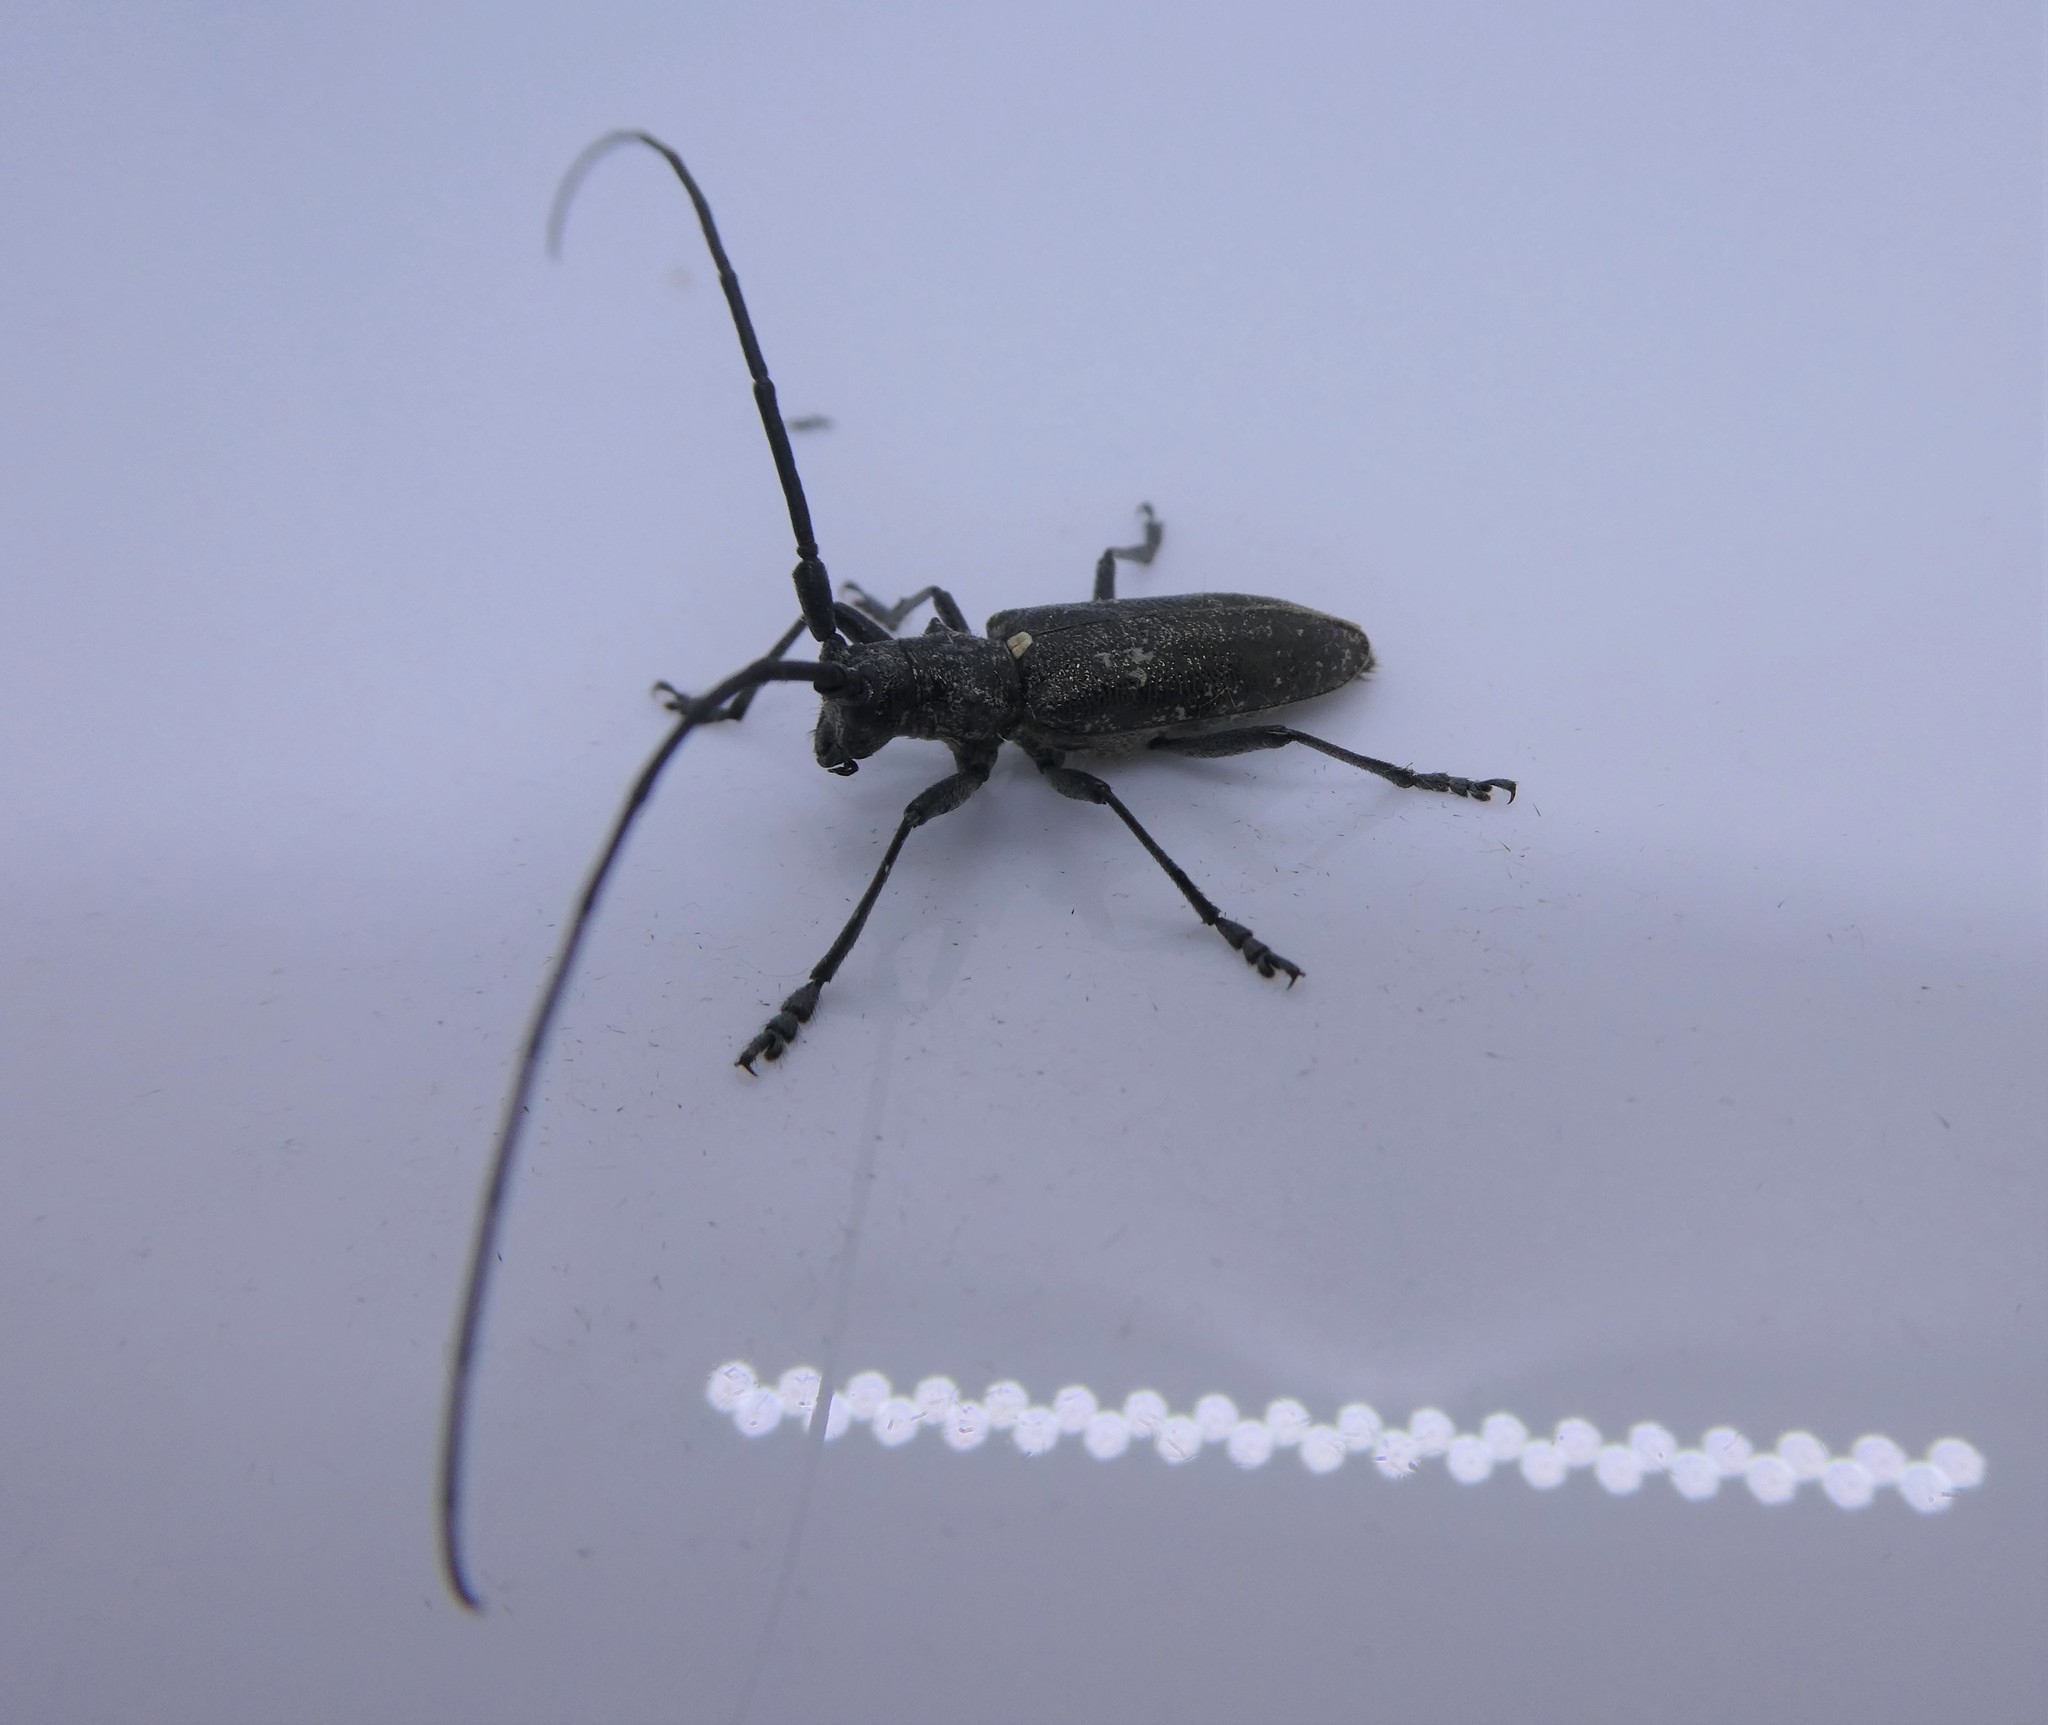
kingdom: Animalia
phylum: Arthropoda
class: Insecta
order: Coleoptera
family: Cerambycidae
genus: Monochamus
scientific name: Monochamus scutellatus
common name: White-spotted sawyer beetle
